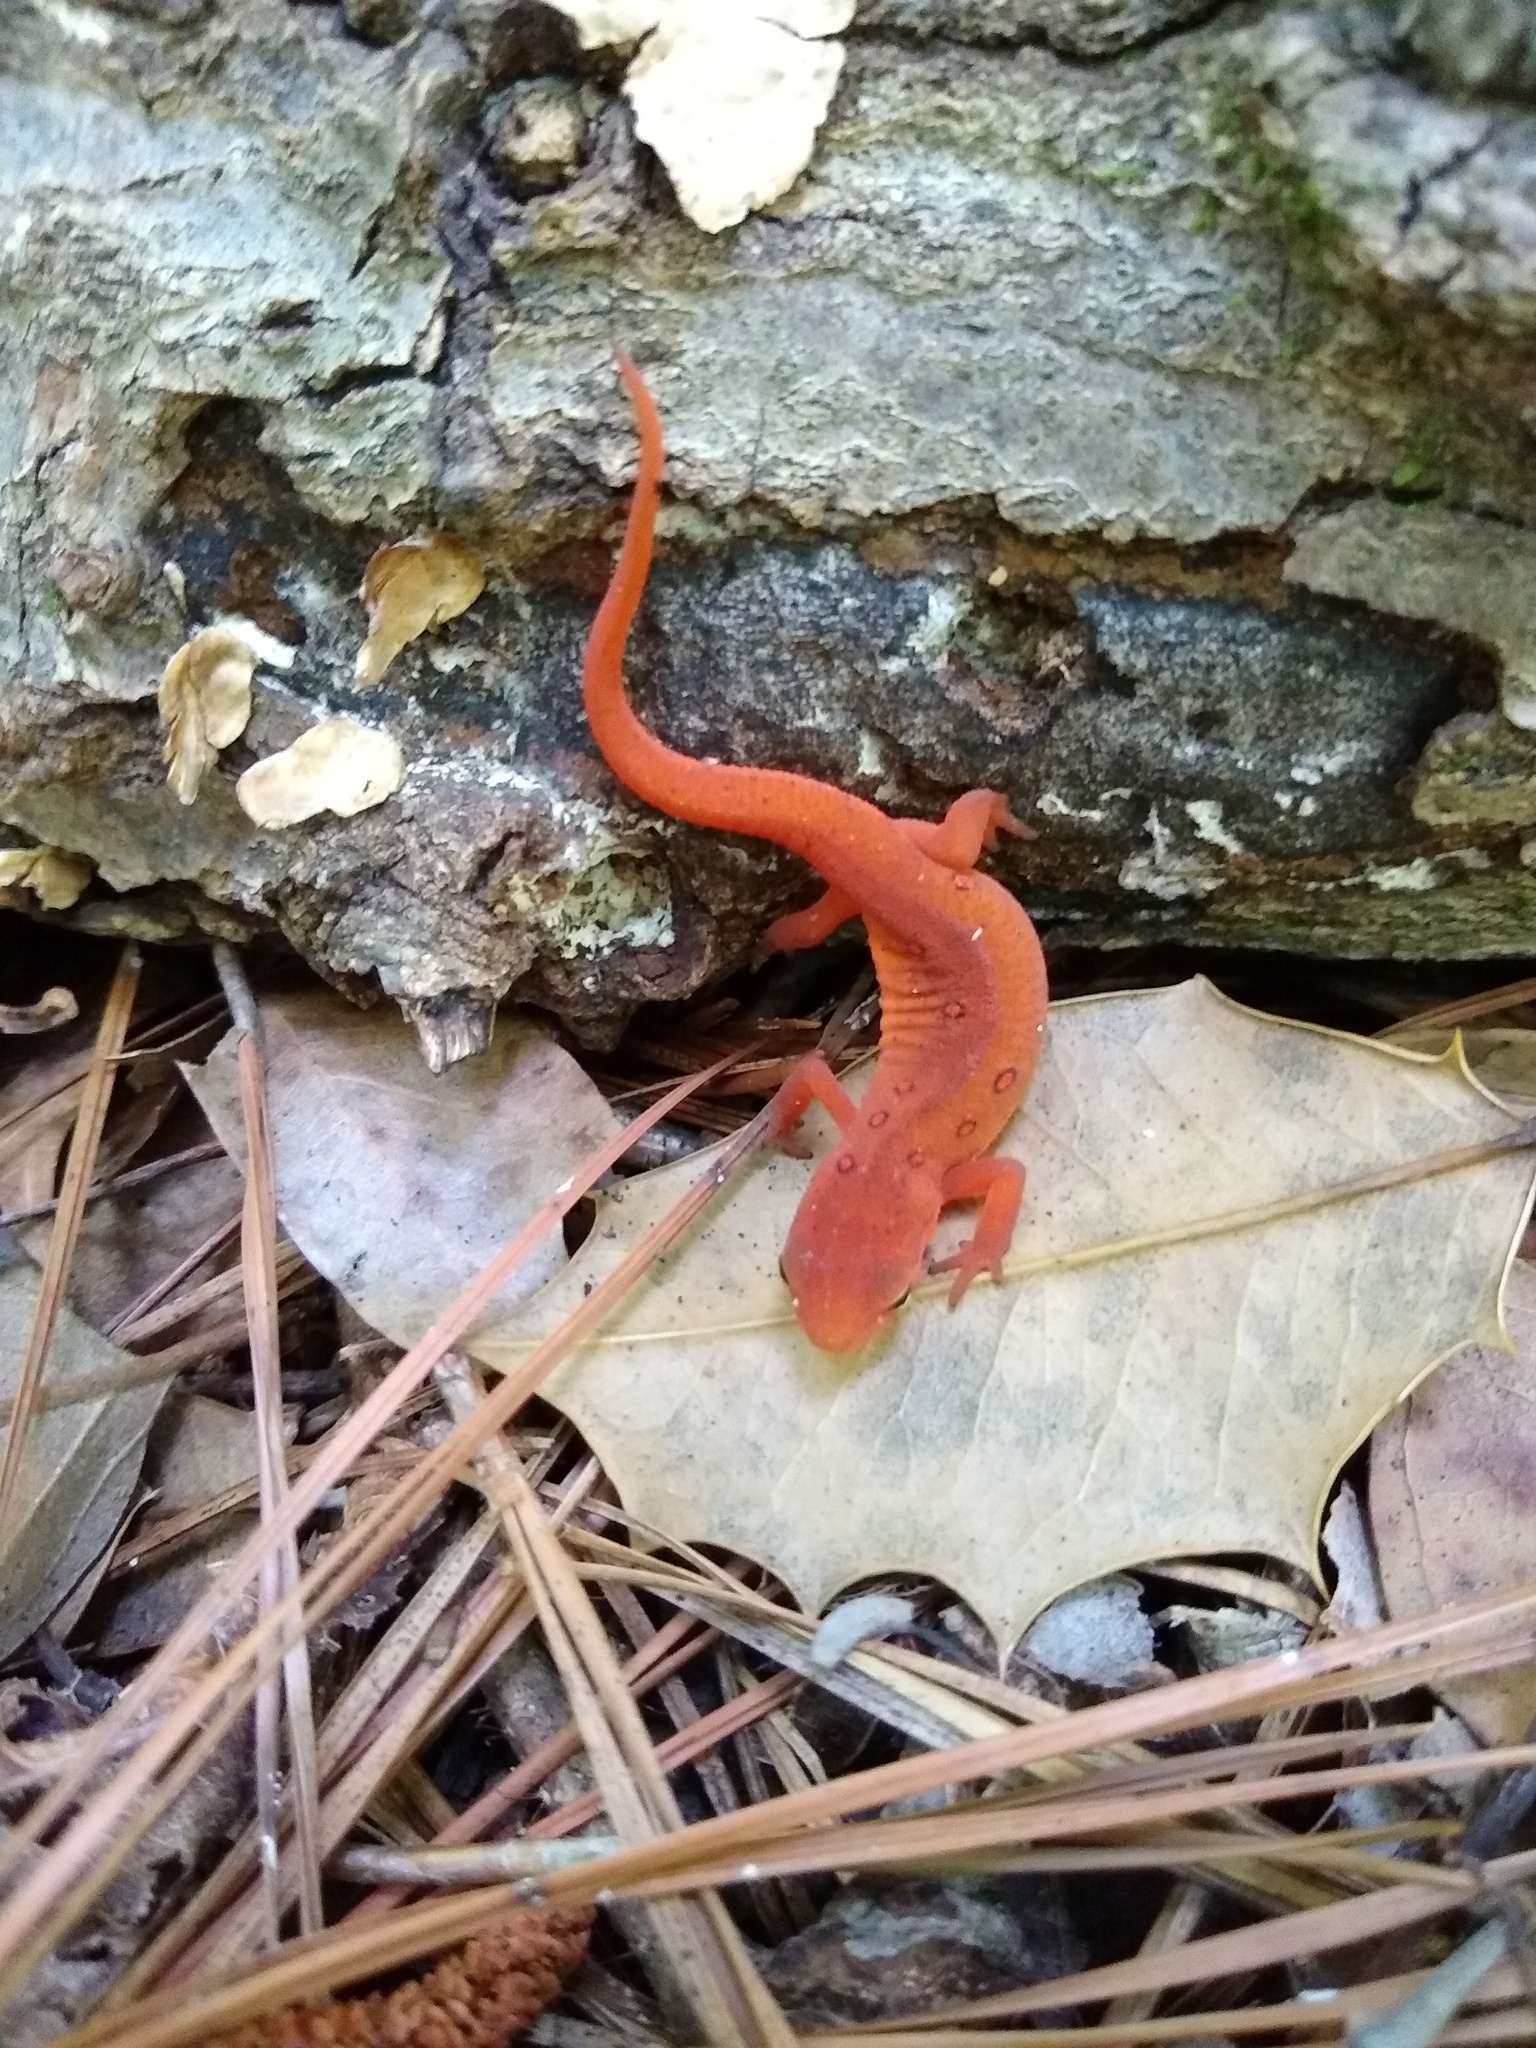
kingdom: Animalia
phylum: Chordata
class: Amphibia
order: Caudata
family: Salamandridae
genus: Notophthalmus
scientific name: Notophthalmus viridescens
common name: Eastern newt
